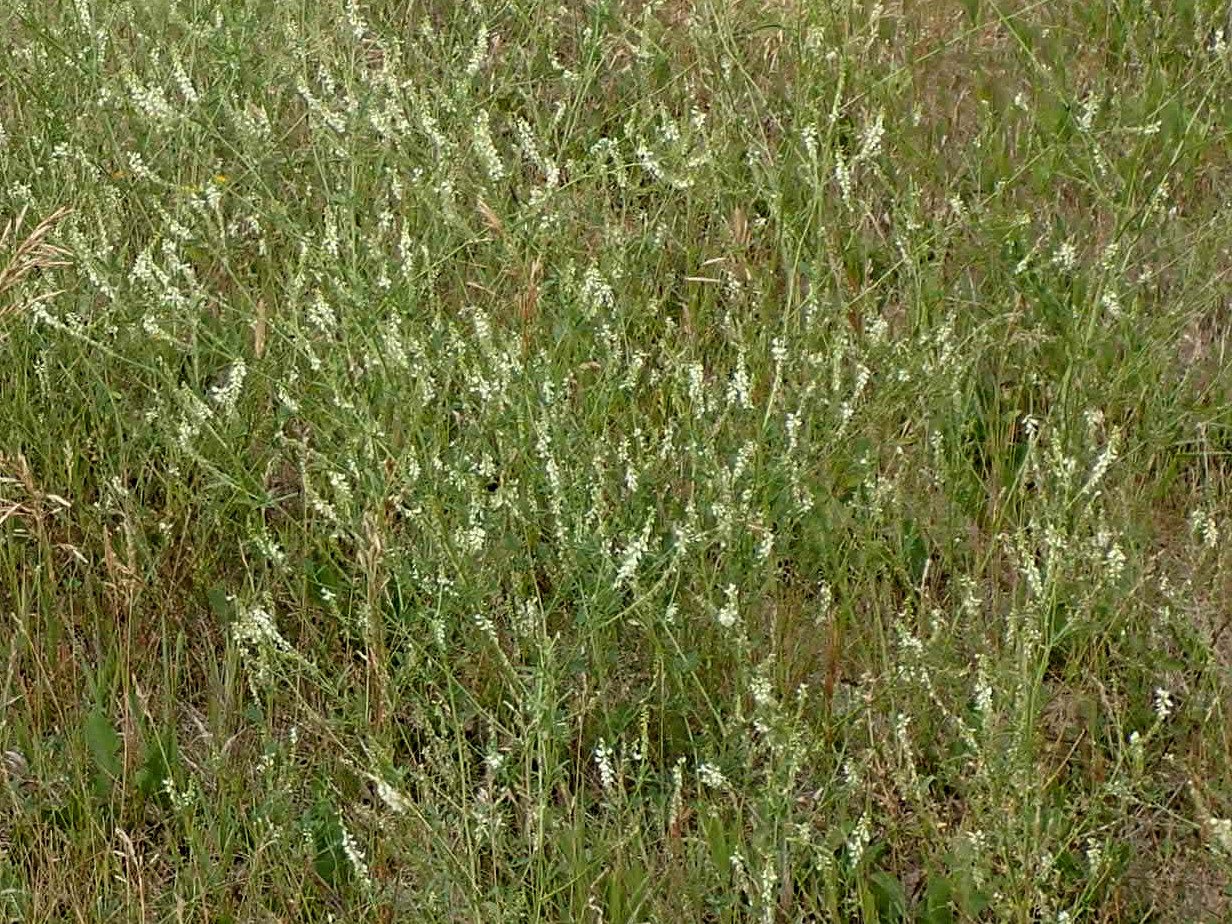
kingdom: Plantae
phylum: Tracheophyta
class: Magnoliopsida
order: Fabales
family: Fabaceae
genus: Melilotus
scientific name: Melilotus albus
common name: White melilot
